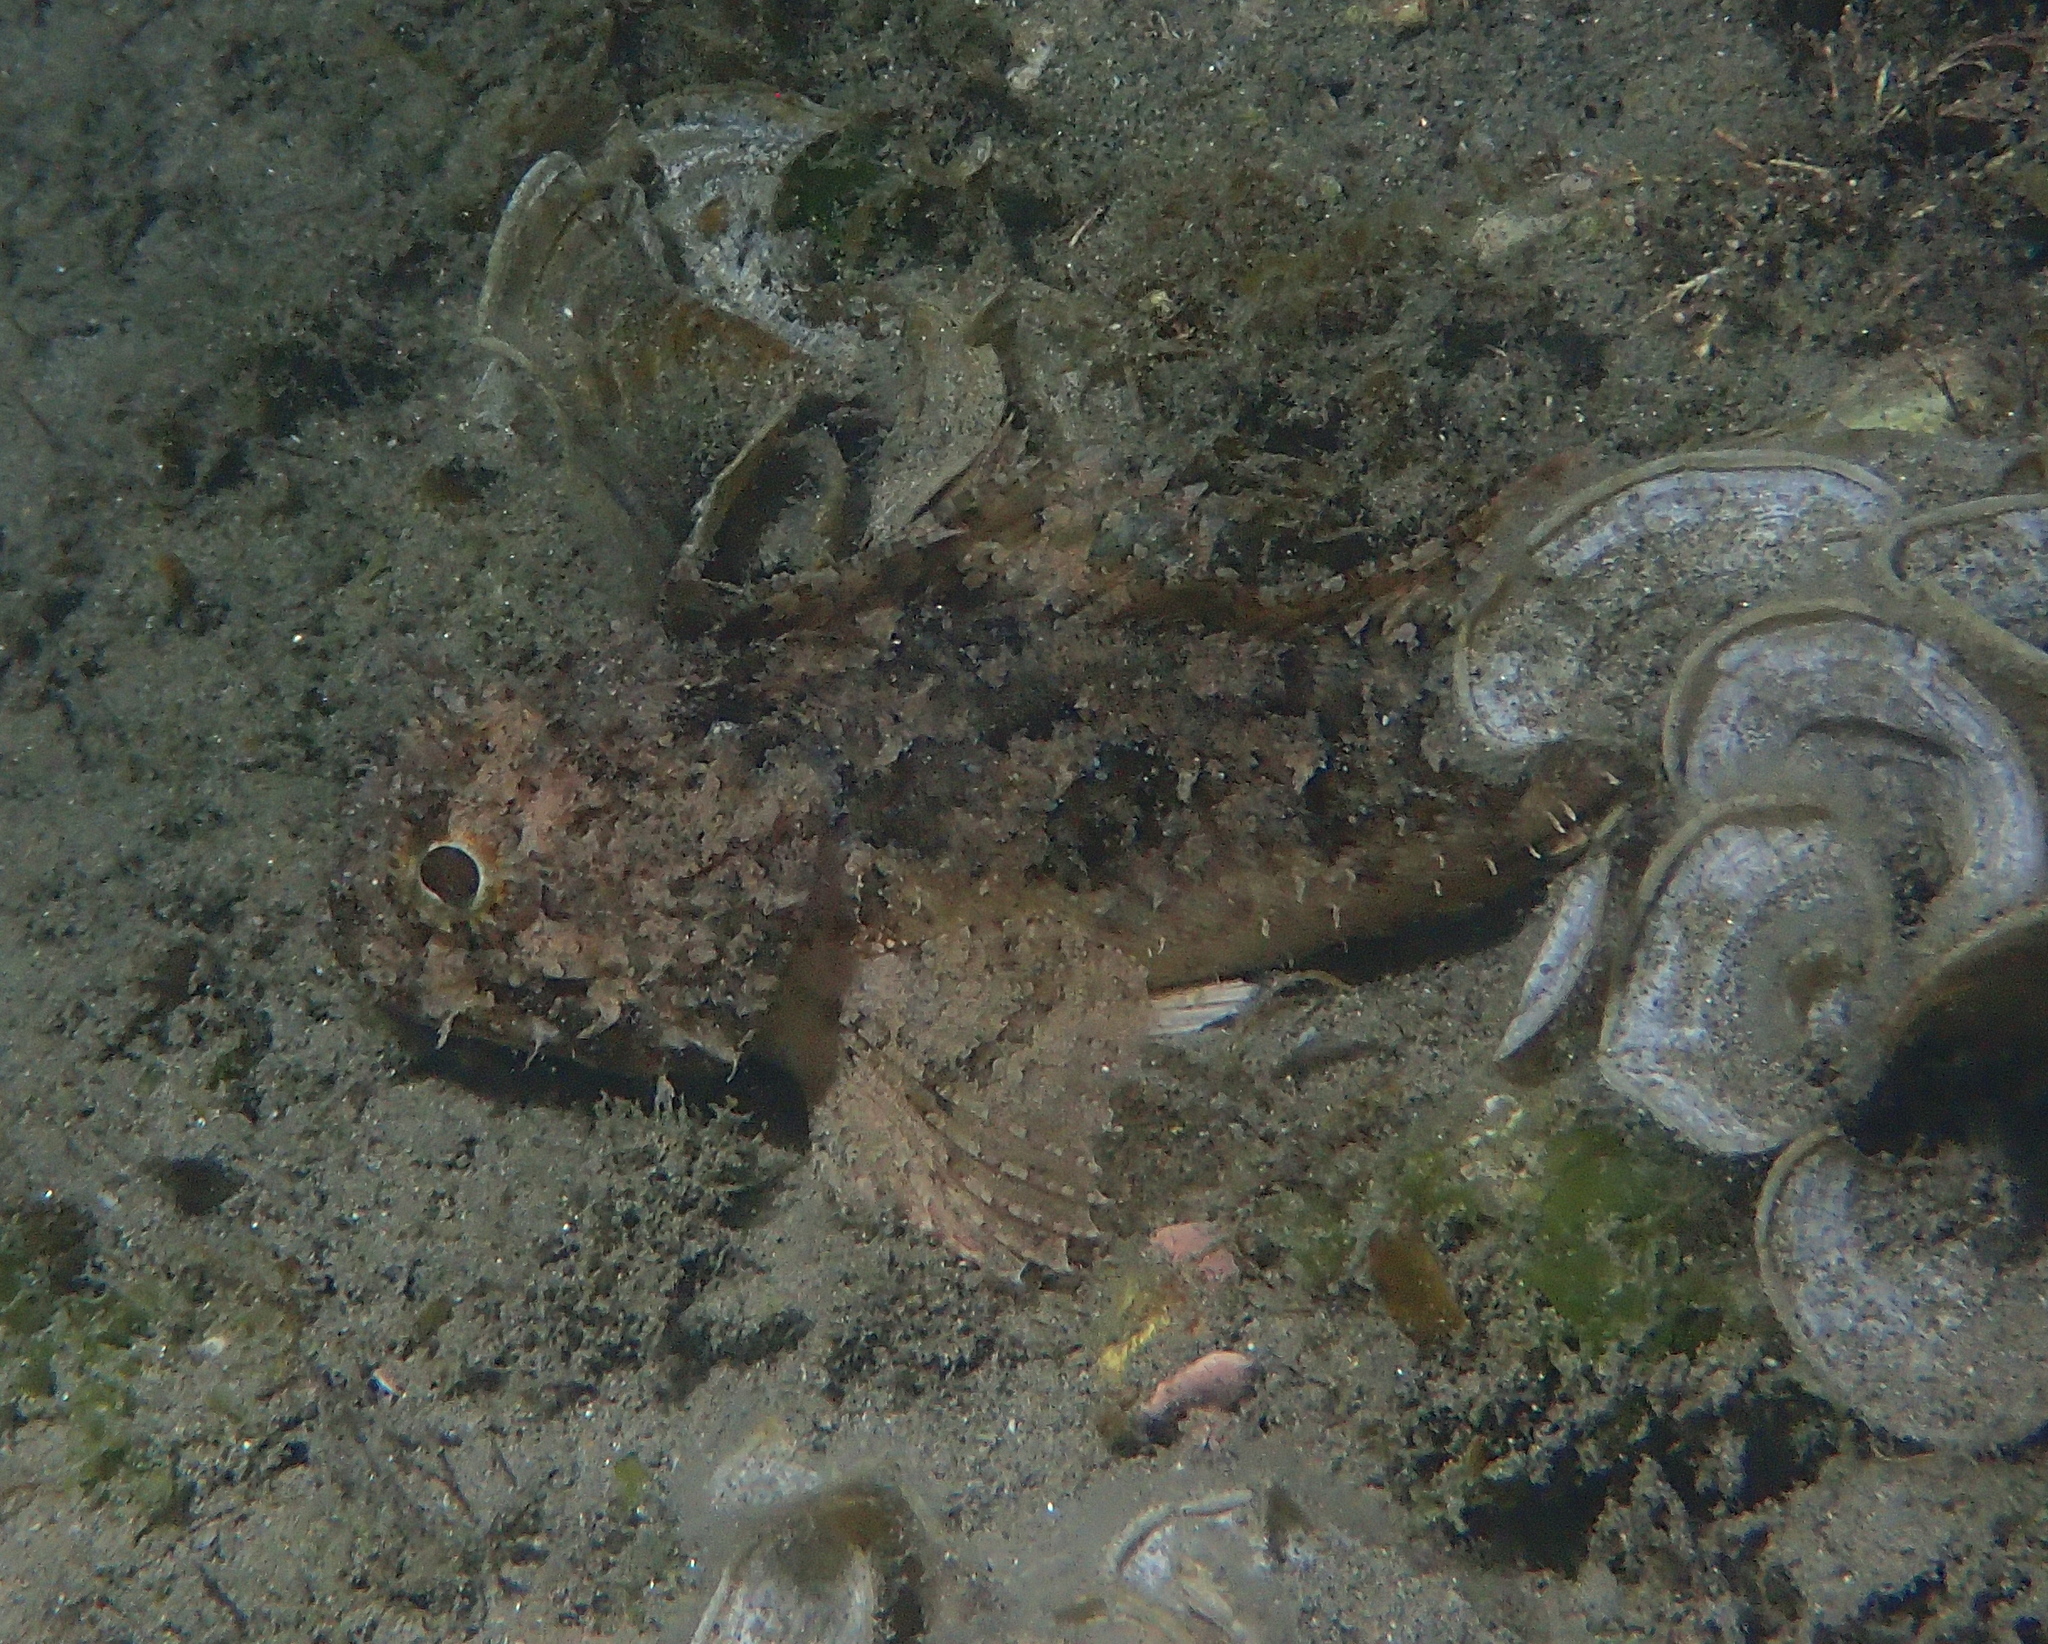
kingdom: Animalia
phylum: Chordata
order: Scorpaeniformes
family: Scorpaenidae
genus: Scorpaena
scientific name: Scorpaena porcus
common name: Black scorpionfish
